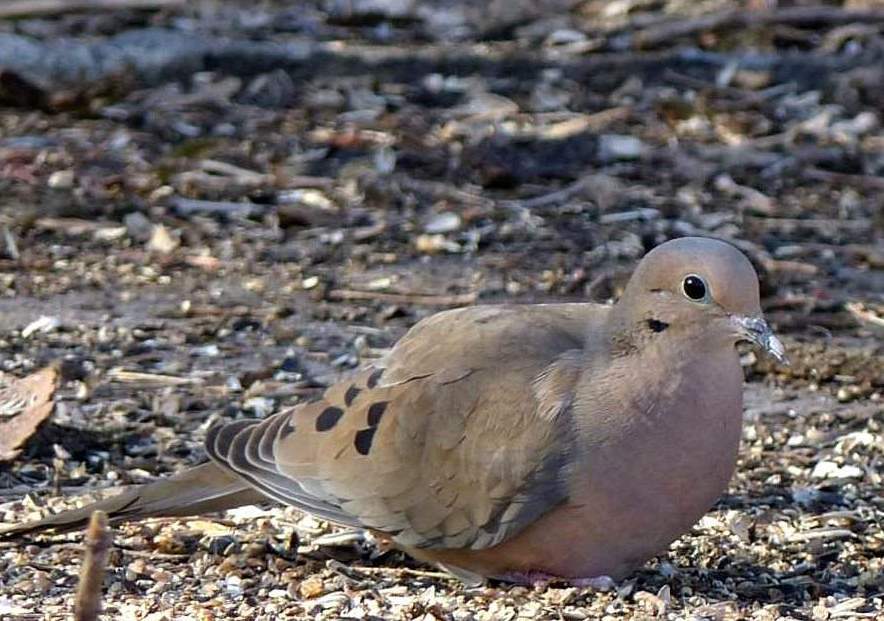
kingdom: Animalia
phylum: Chordata
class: Aves
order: Columbiformes
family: Columbidae
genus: Zenaida
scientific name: Zenaida macroura
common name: Mourning dove
